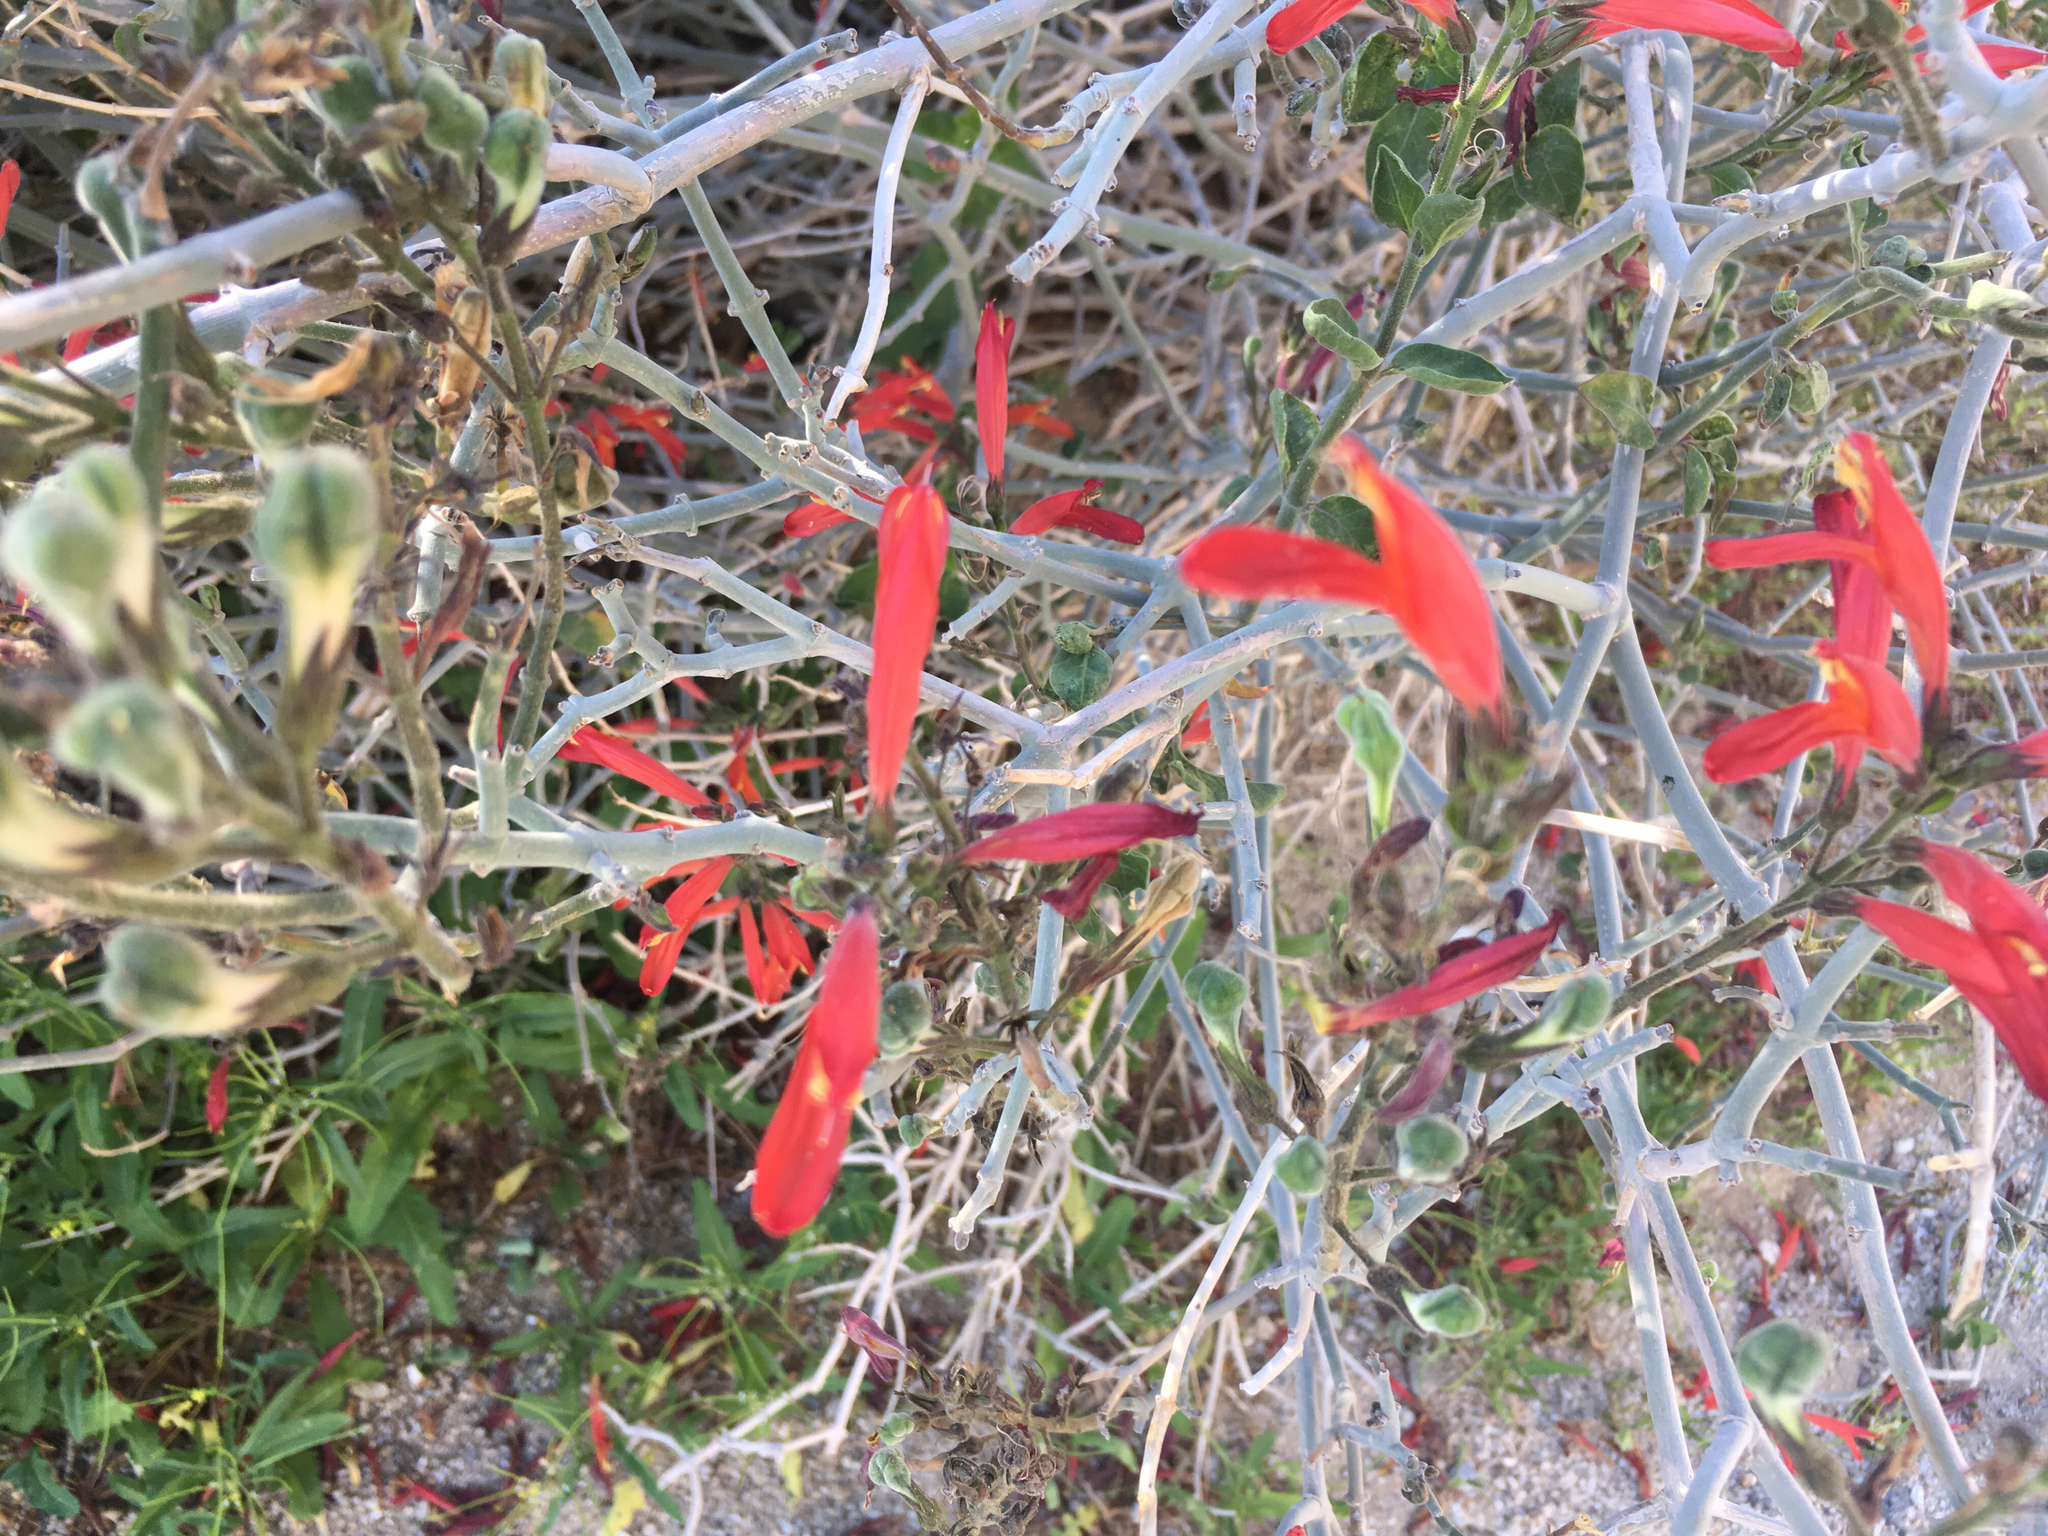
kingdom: Plantae
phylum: Tracheophyta
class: Magnoliopsida
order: Lamiales
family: Acanthaceae
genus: Justicia
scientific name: Justicia californica
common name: Chuparosa-honeysuckle
